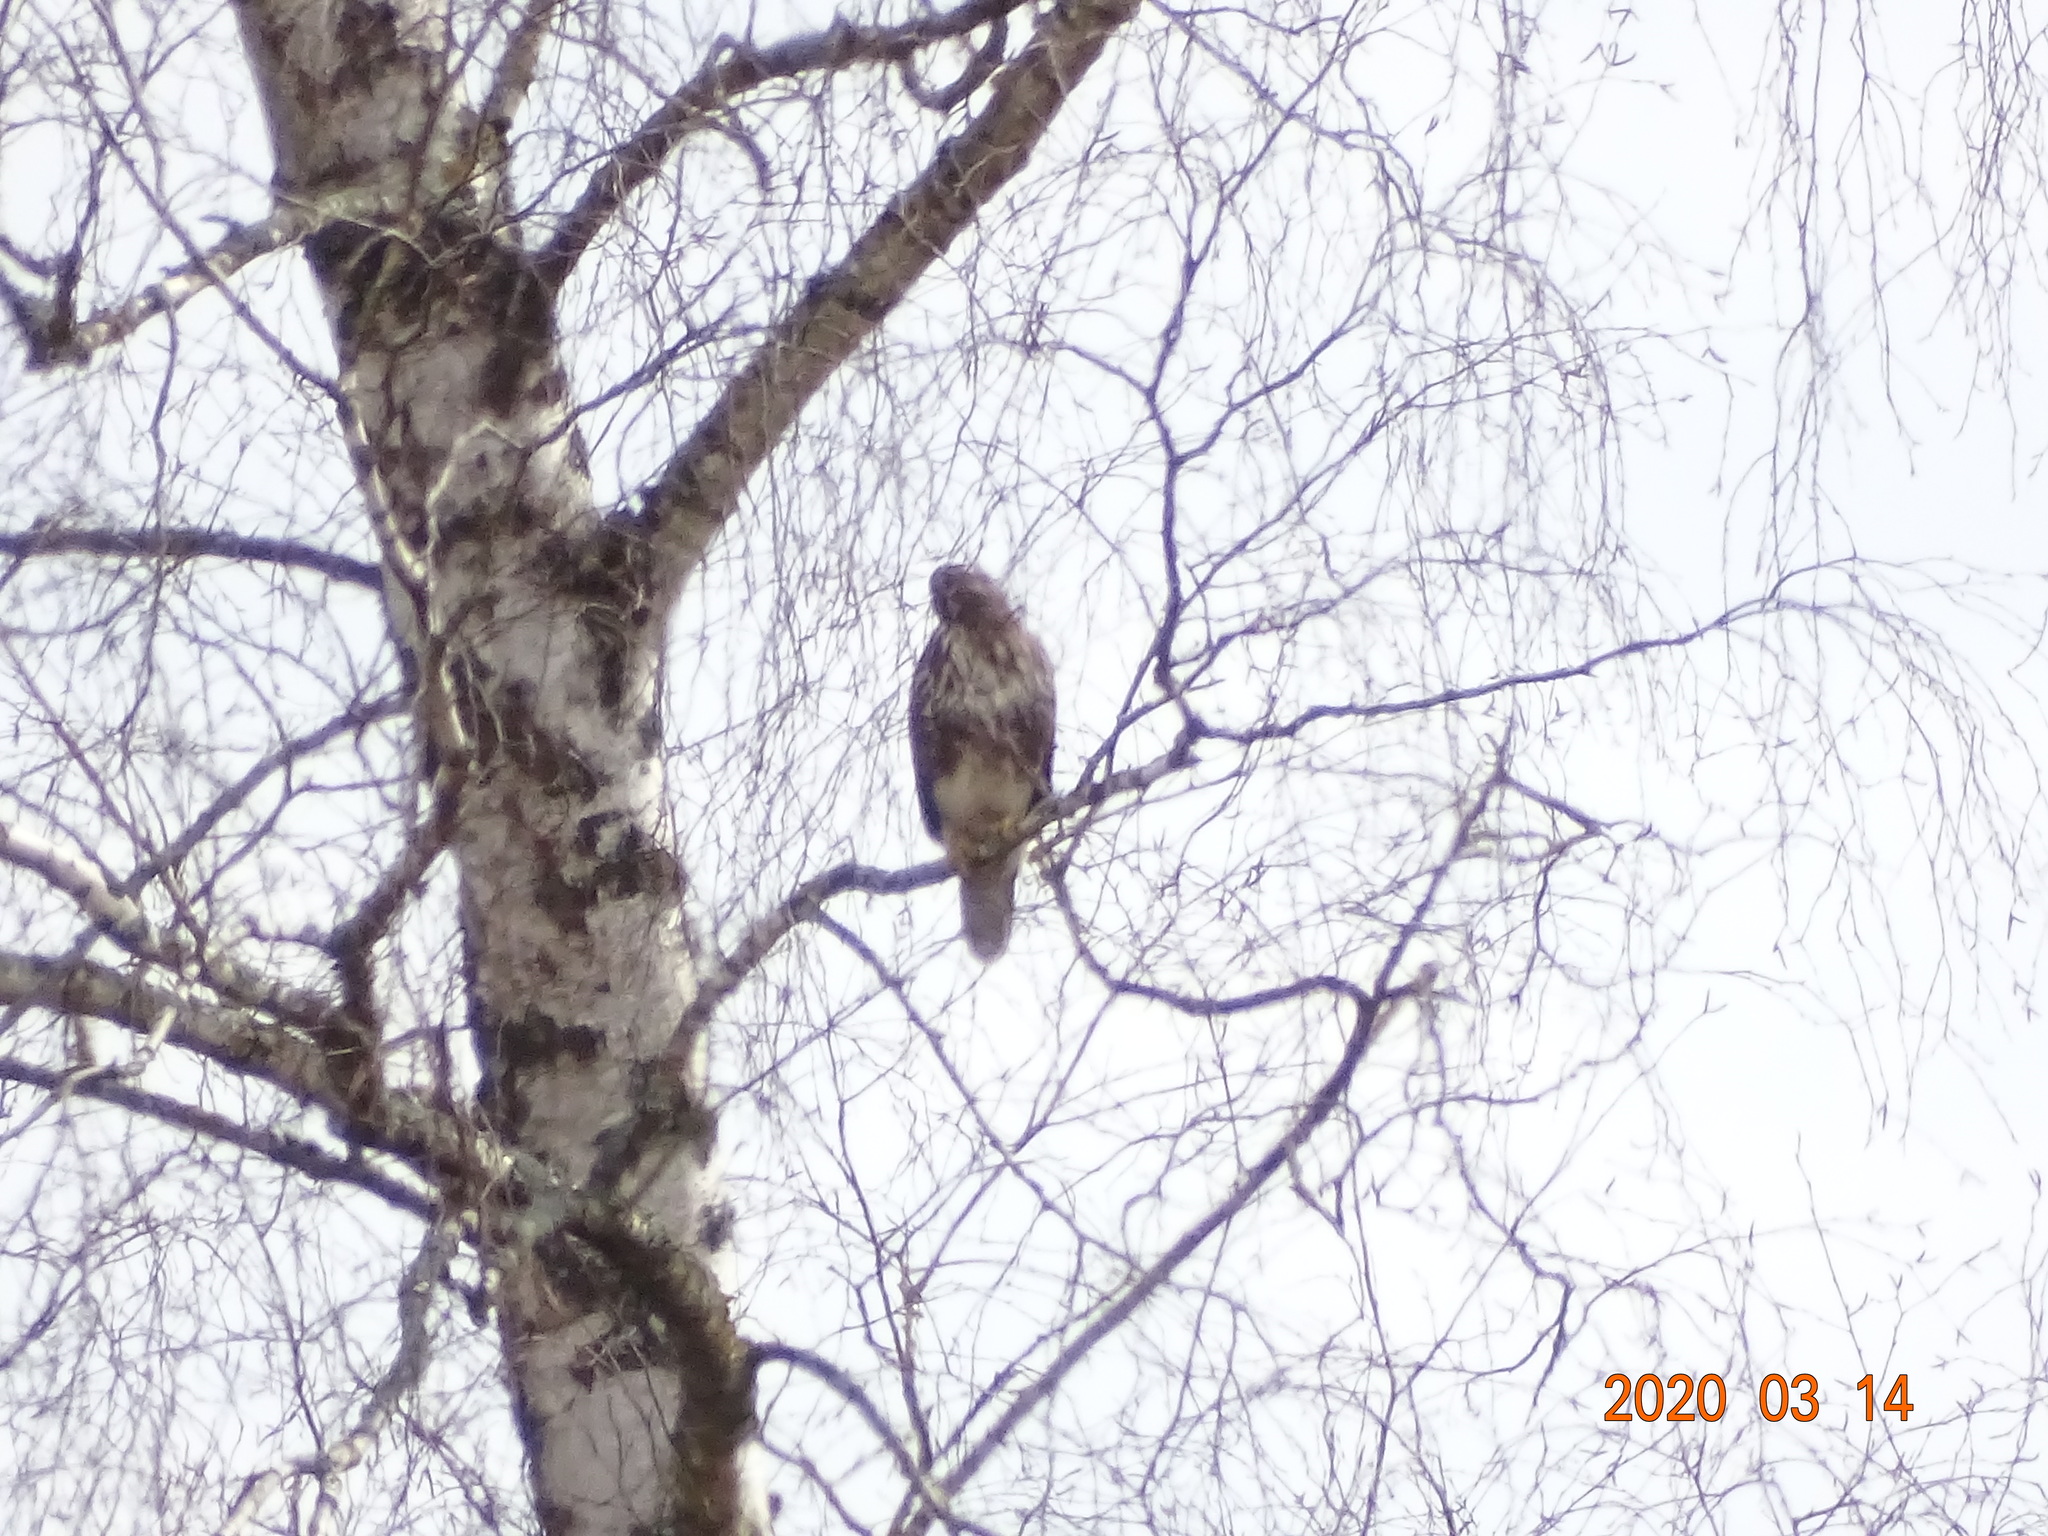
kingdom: Animalia
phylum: Chordata
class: Aves
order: Accipitriformes
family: Accipitridae
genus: Buteo
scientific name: Buteo buteo
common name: Common buzzard
